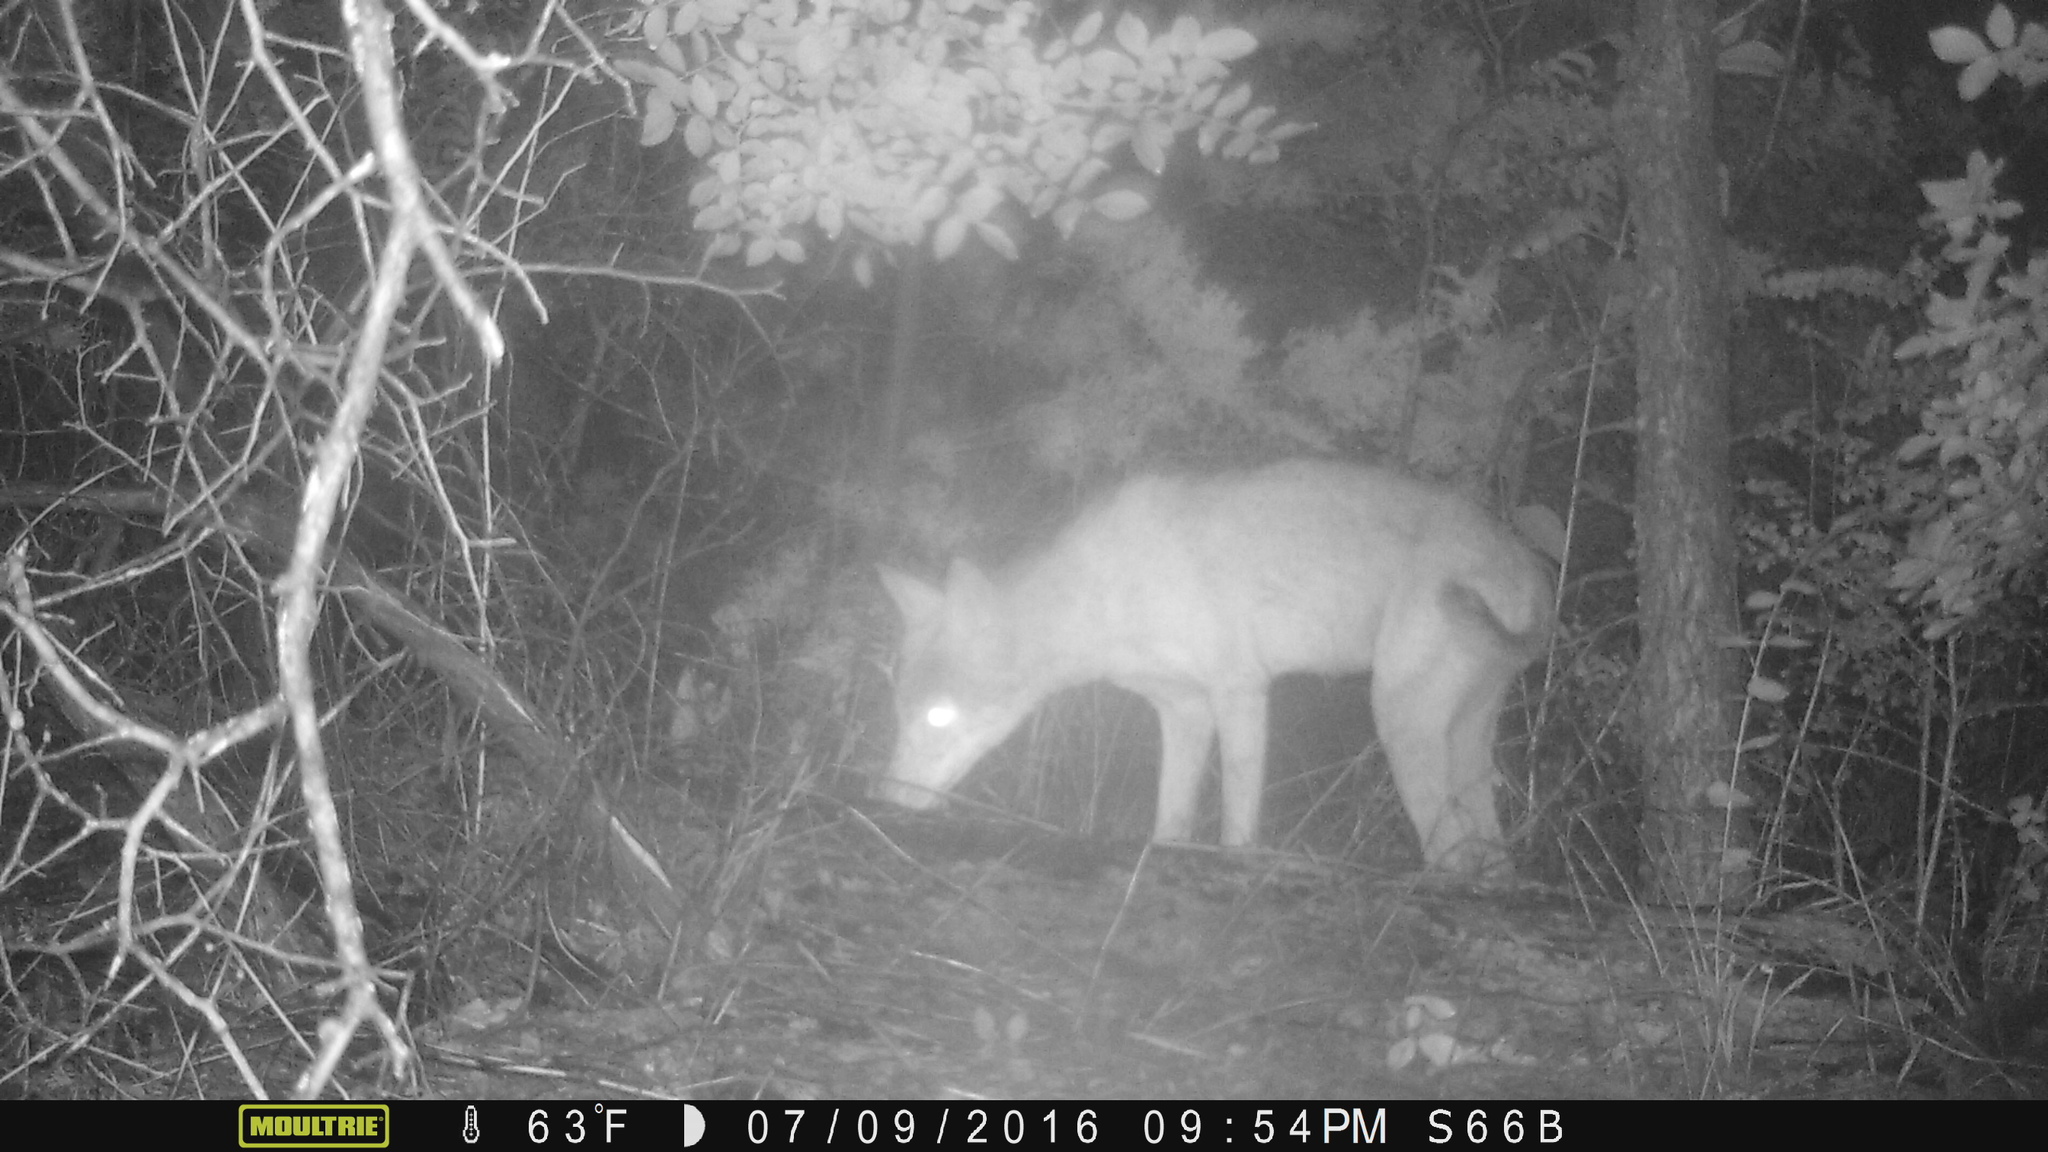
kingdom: Animalia
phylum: Chordata
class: Mammalia
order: Carnivora
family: Canidae
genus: Canis
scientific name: Canis latrans
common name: Coyote
